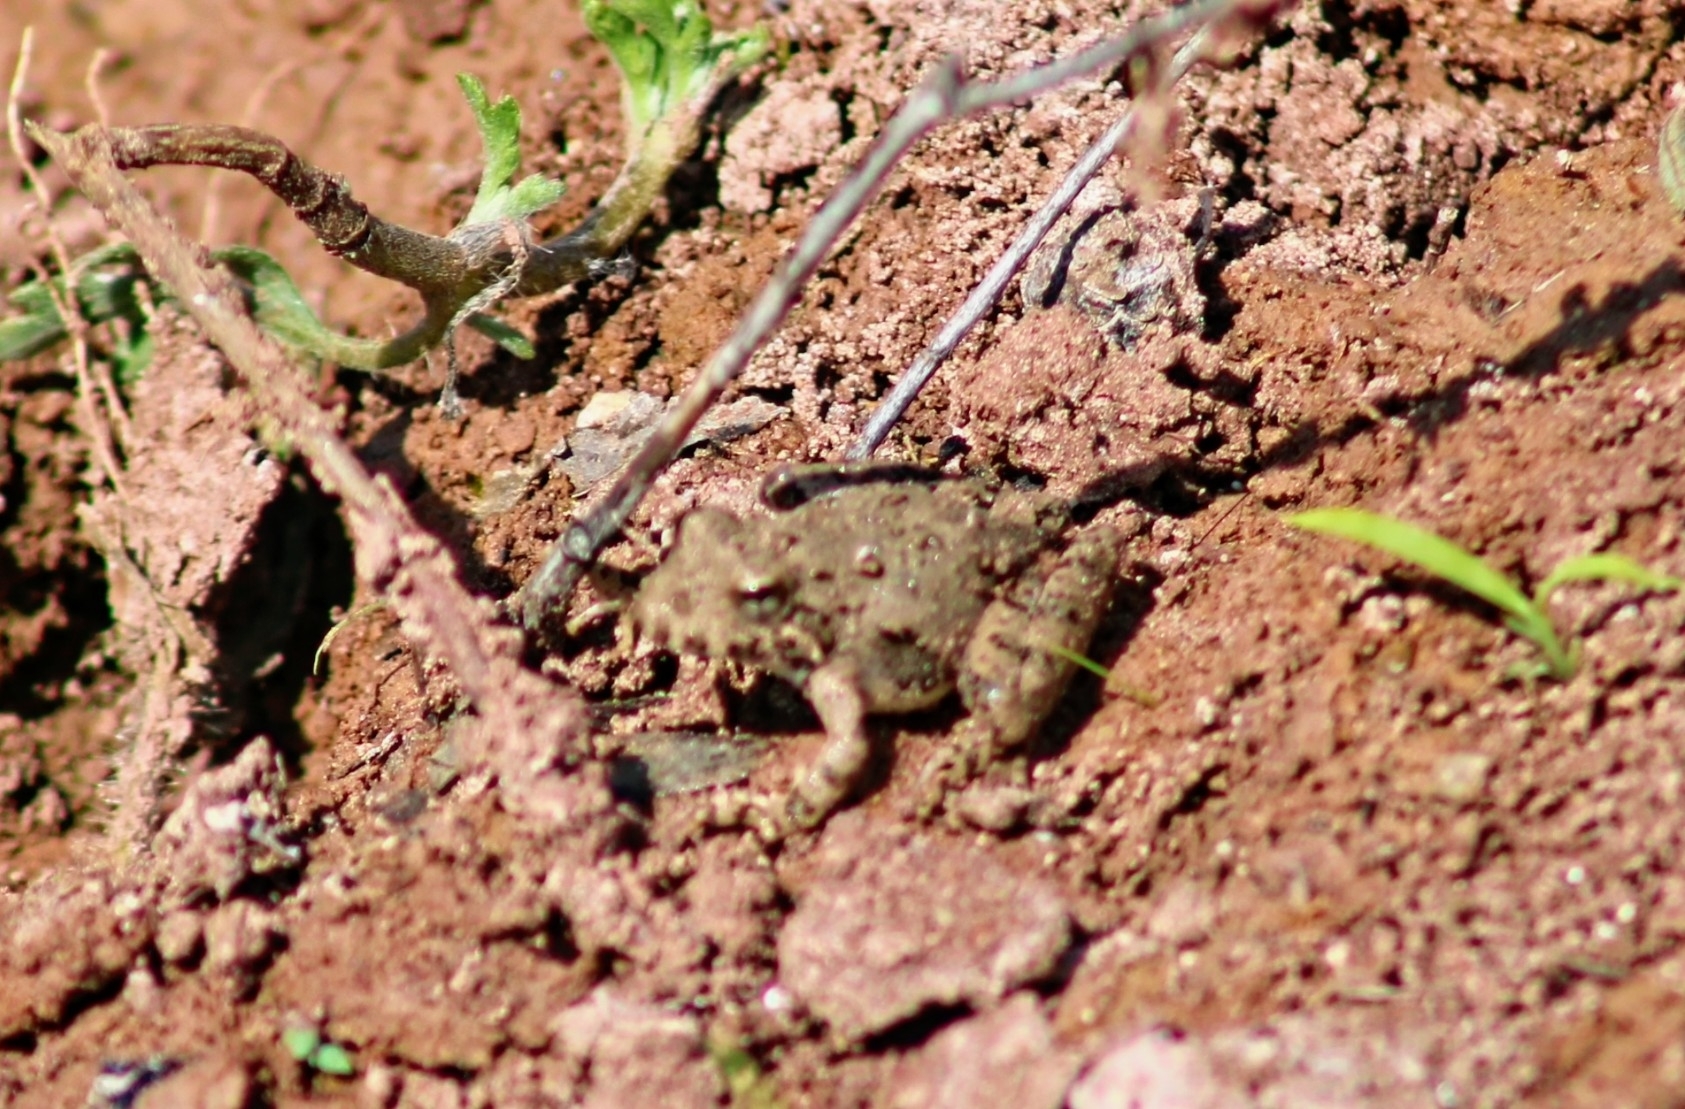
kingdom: Animalia
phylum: Chordata
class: Amphibia
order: Anura
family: Hylidae
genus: Acris
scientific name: Acris blanchardi
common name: Blanchard's cricket frog
